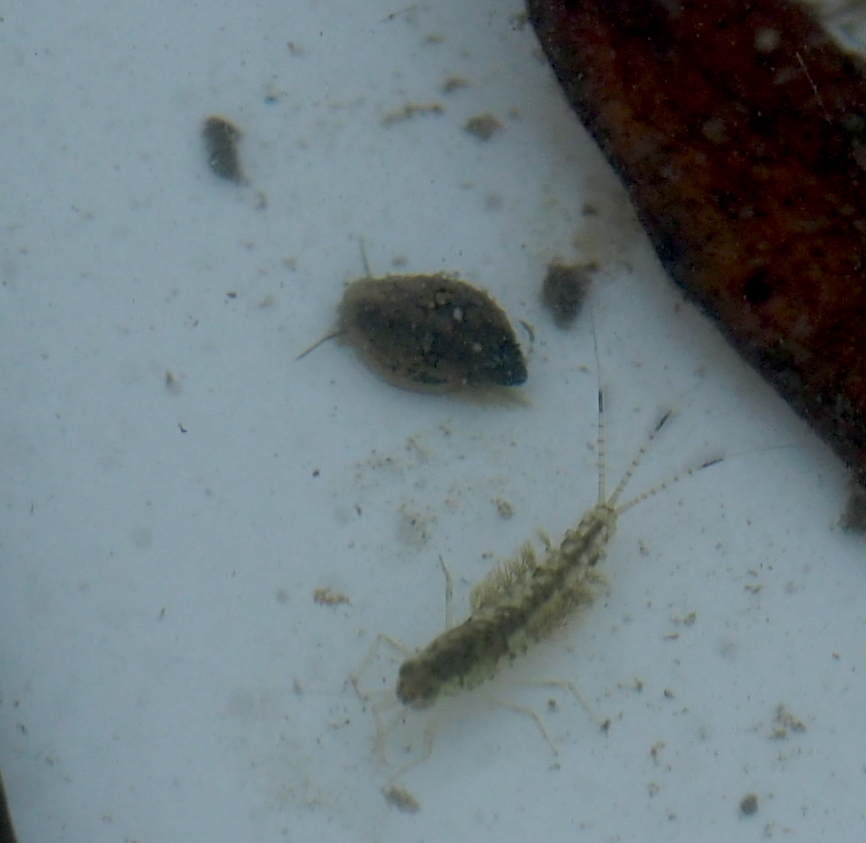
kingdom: Animalia
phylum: Mollusca
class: Gastropoda
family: Physidae
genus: Physella
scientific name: Physella acuta
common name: European physa
